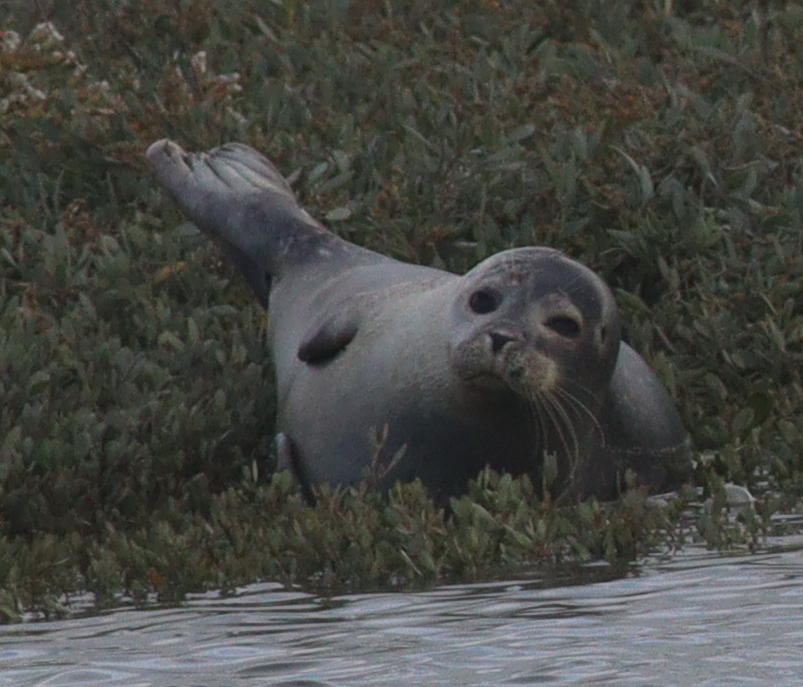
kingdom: Animalia
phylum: Chordata
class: Mammalia
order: Carnivora
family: Phocidae
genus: Phoca
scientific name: Phoca vitulina
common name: Harbor seal
